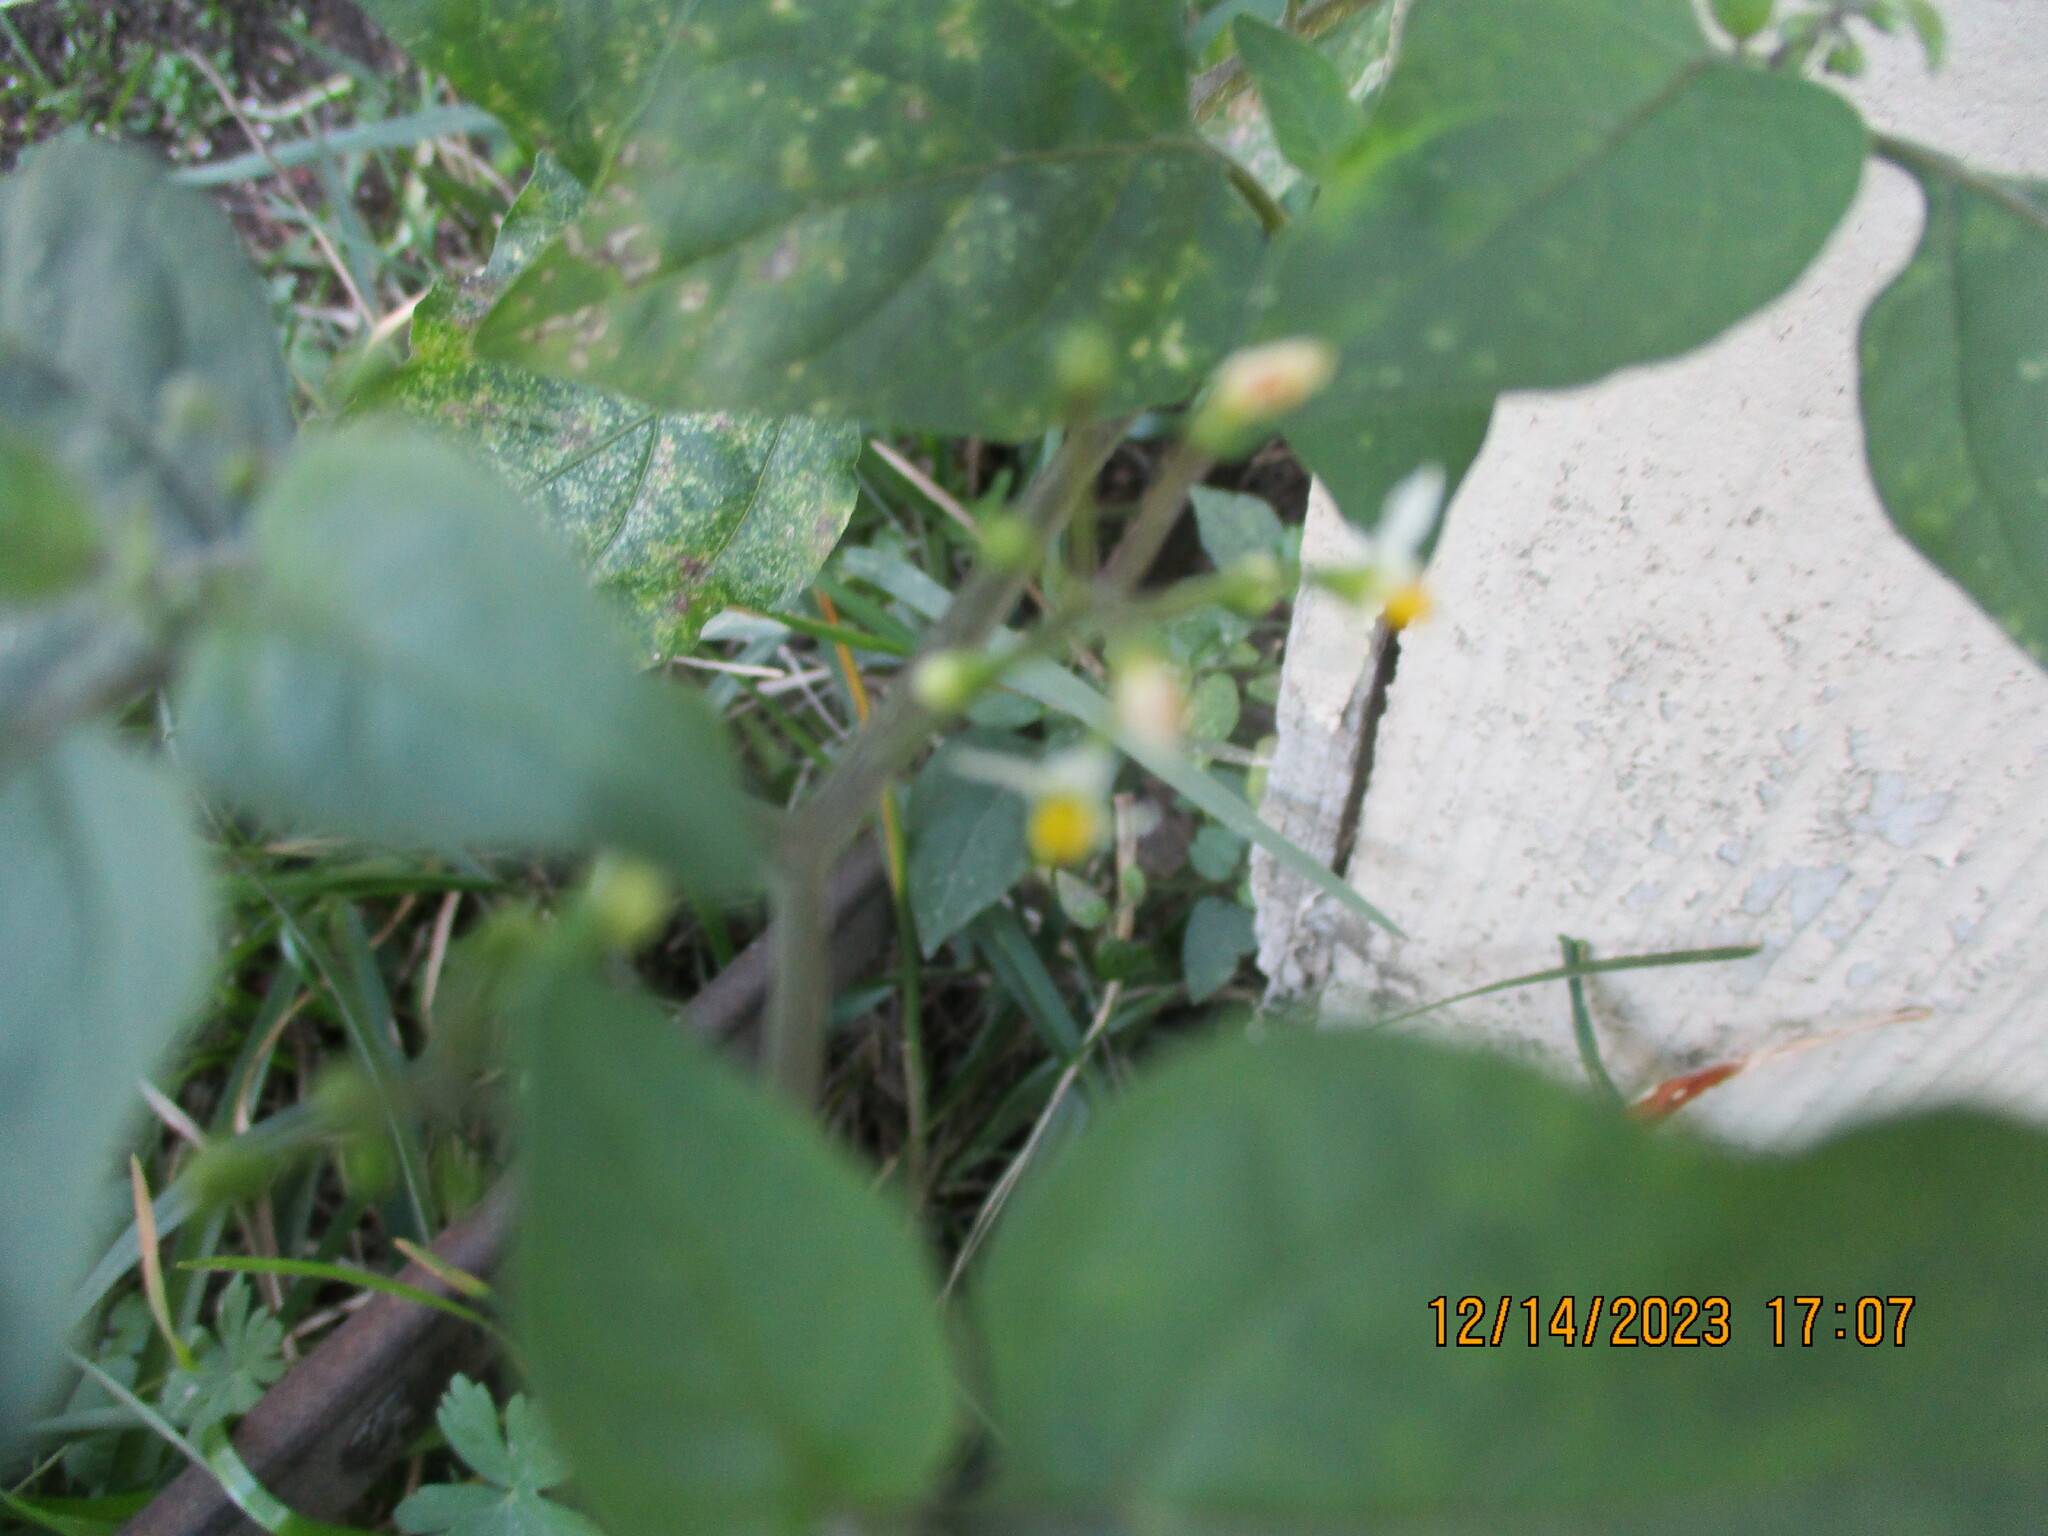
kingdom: Plantae
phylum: Tracheophyta
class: Magnoliopsida
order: Solanales
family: Solanaceae
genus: Solanum
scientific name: Solanum americanum
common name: American black nightshade
